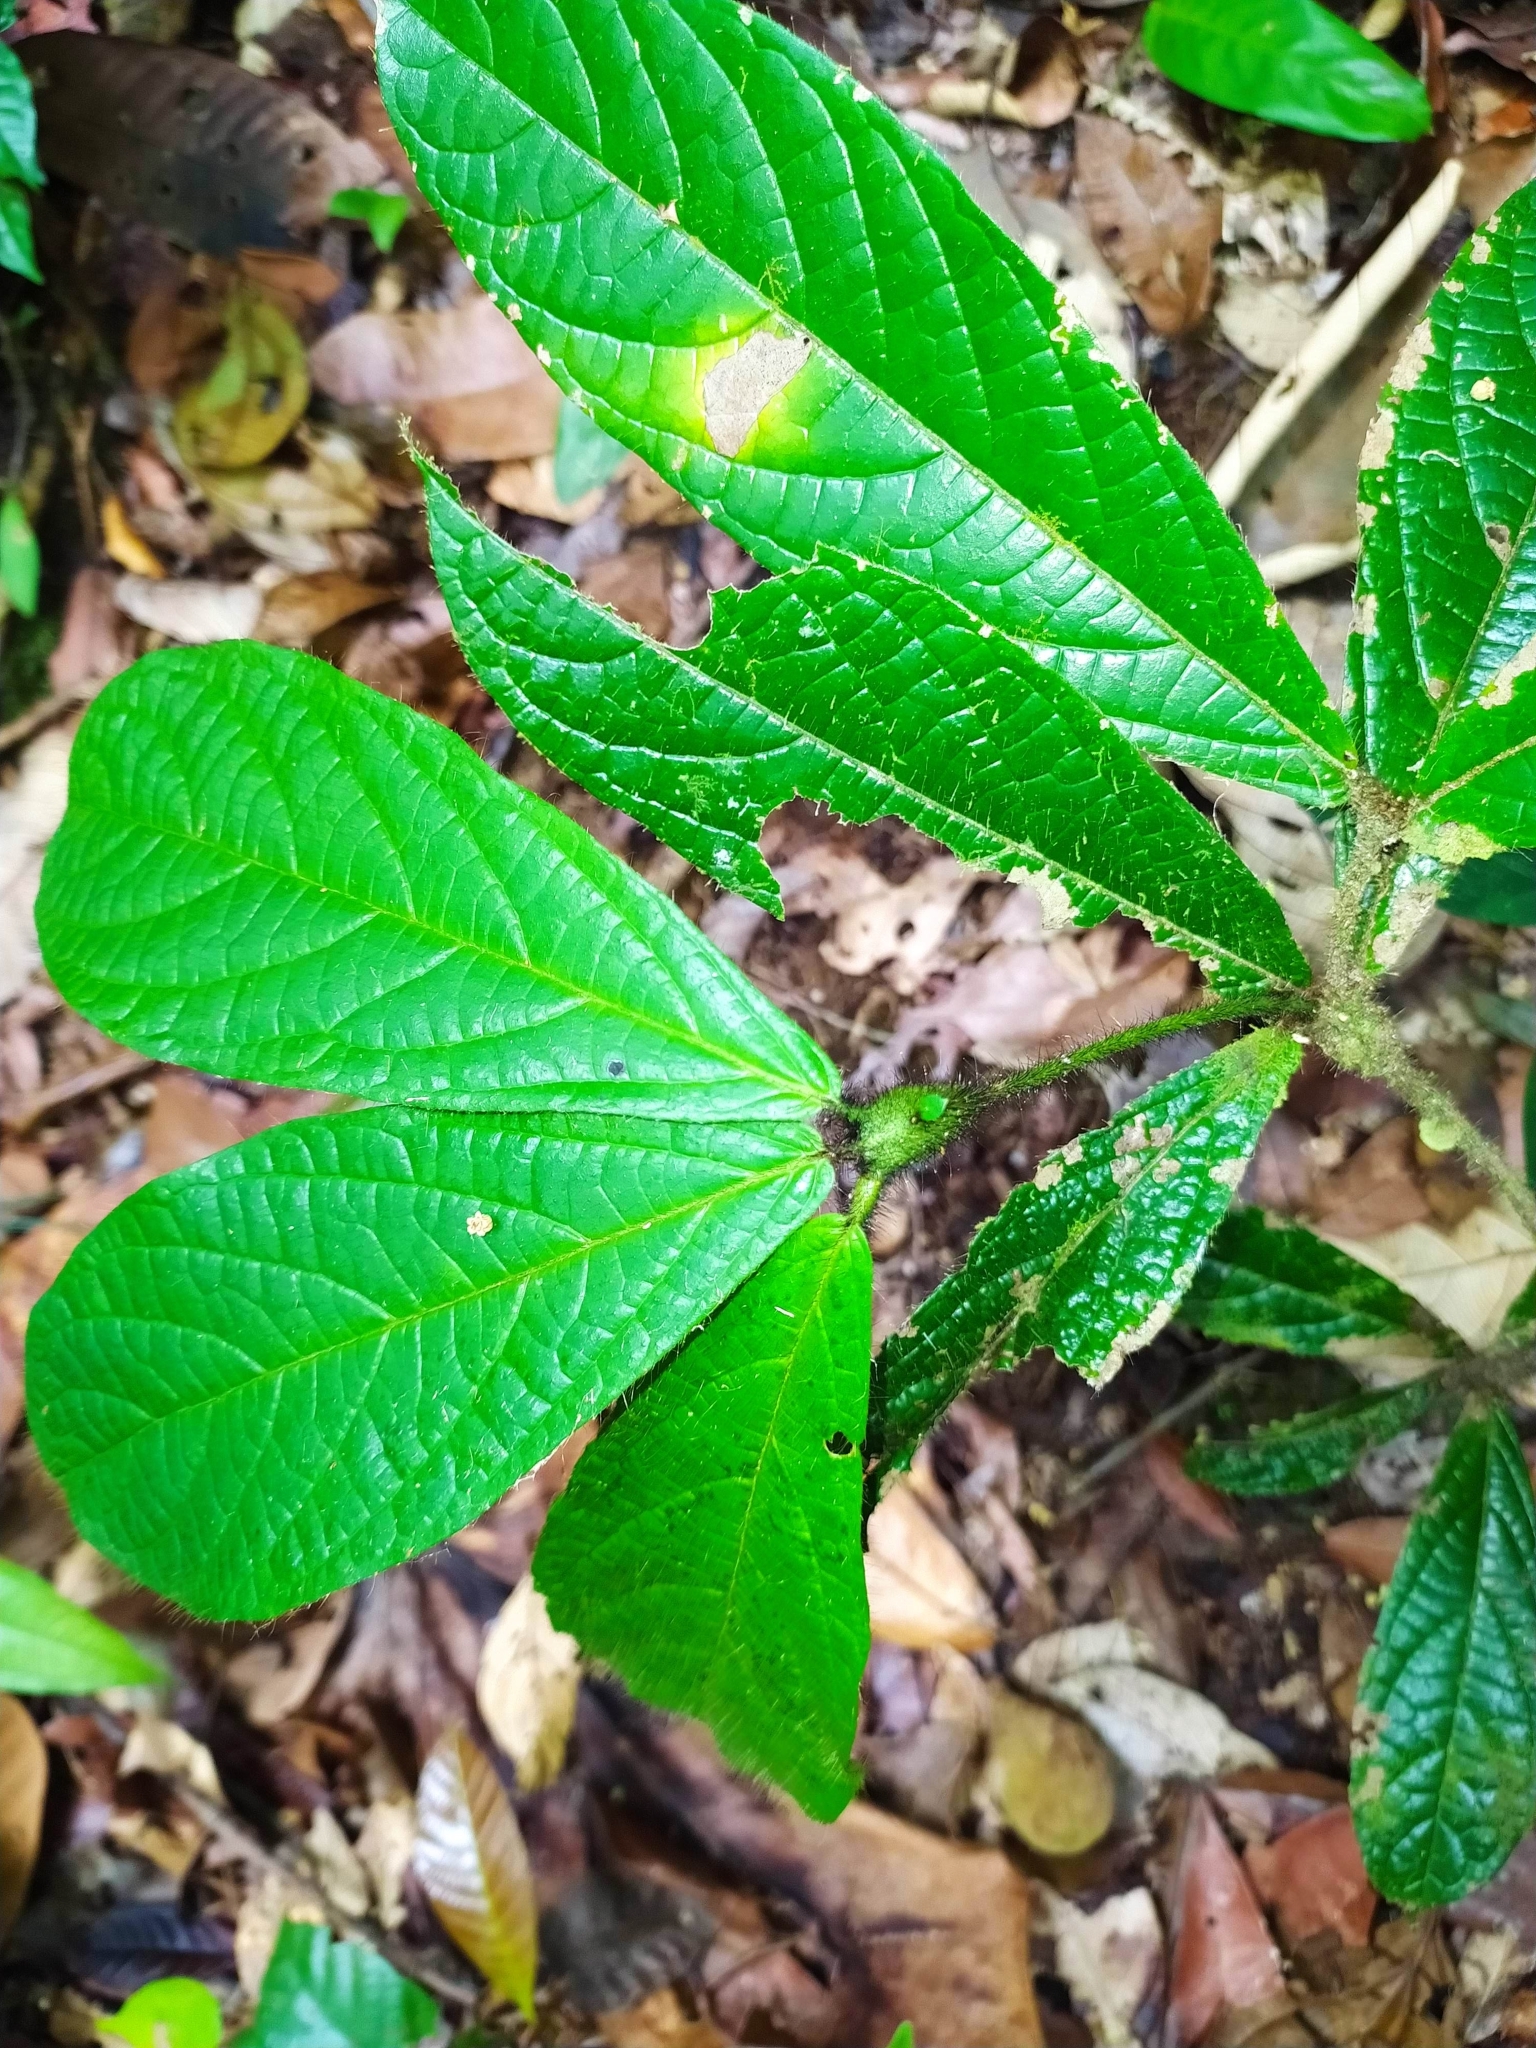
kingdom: Plantae
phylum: Tracheophyta
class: Magnoliopsida
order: Boraginales
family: Cordiaceae
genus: Cordia
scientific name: Cordia nodosa
